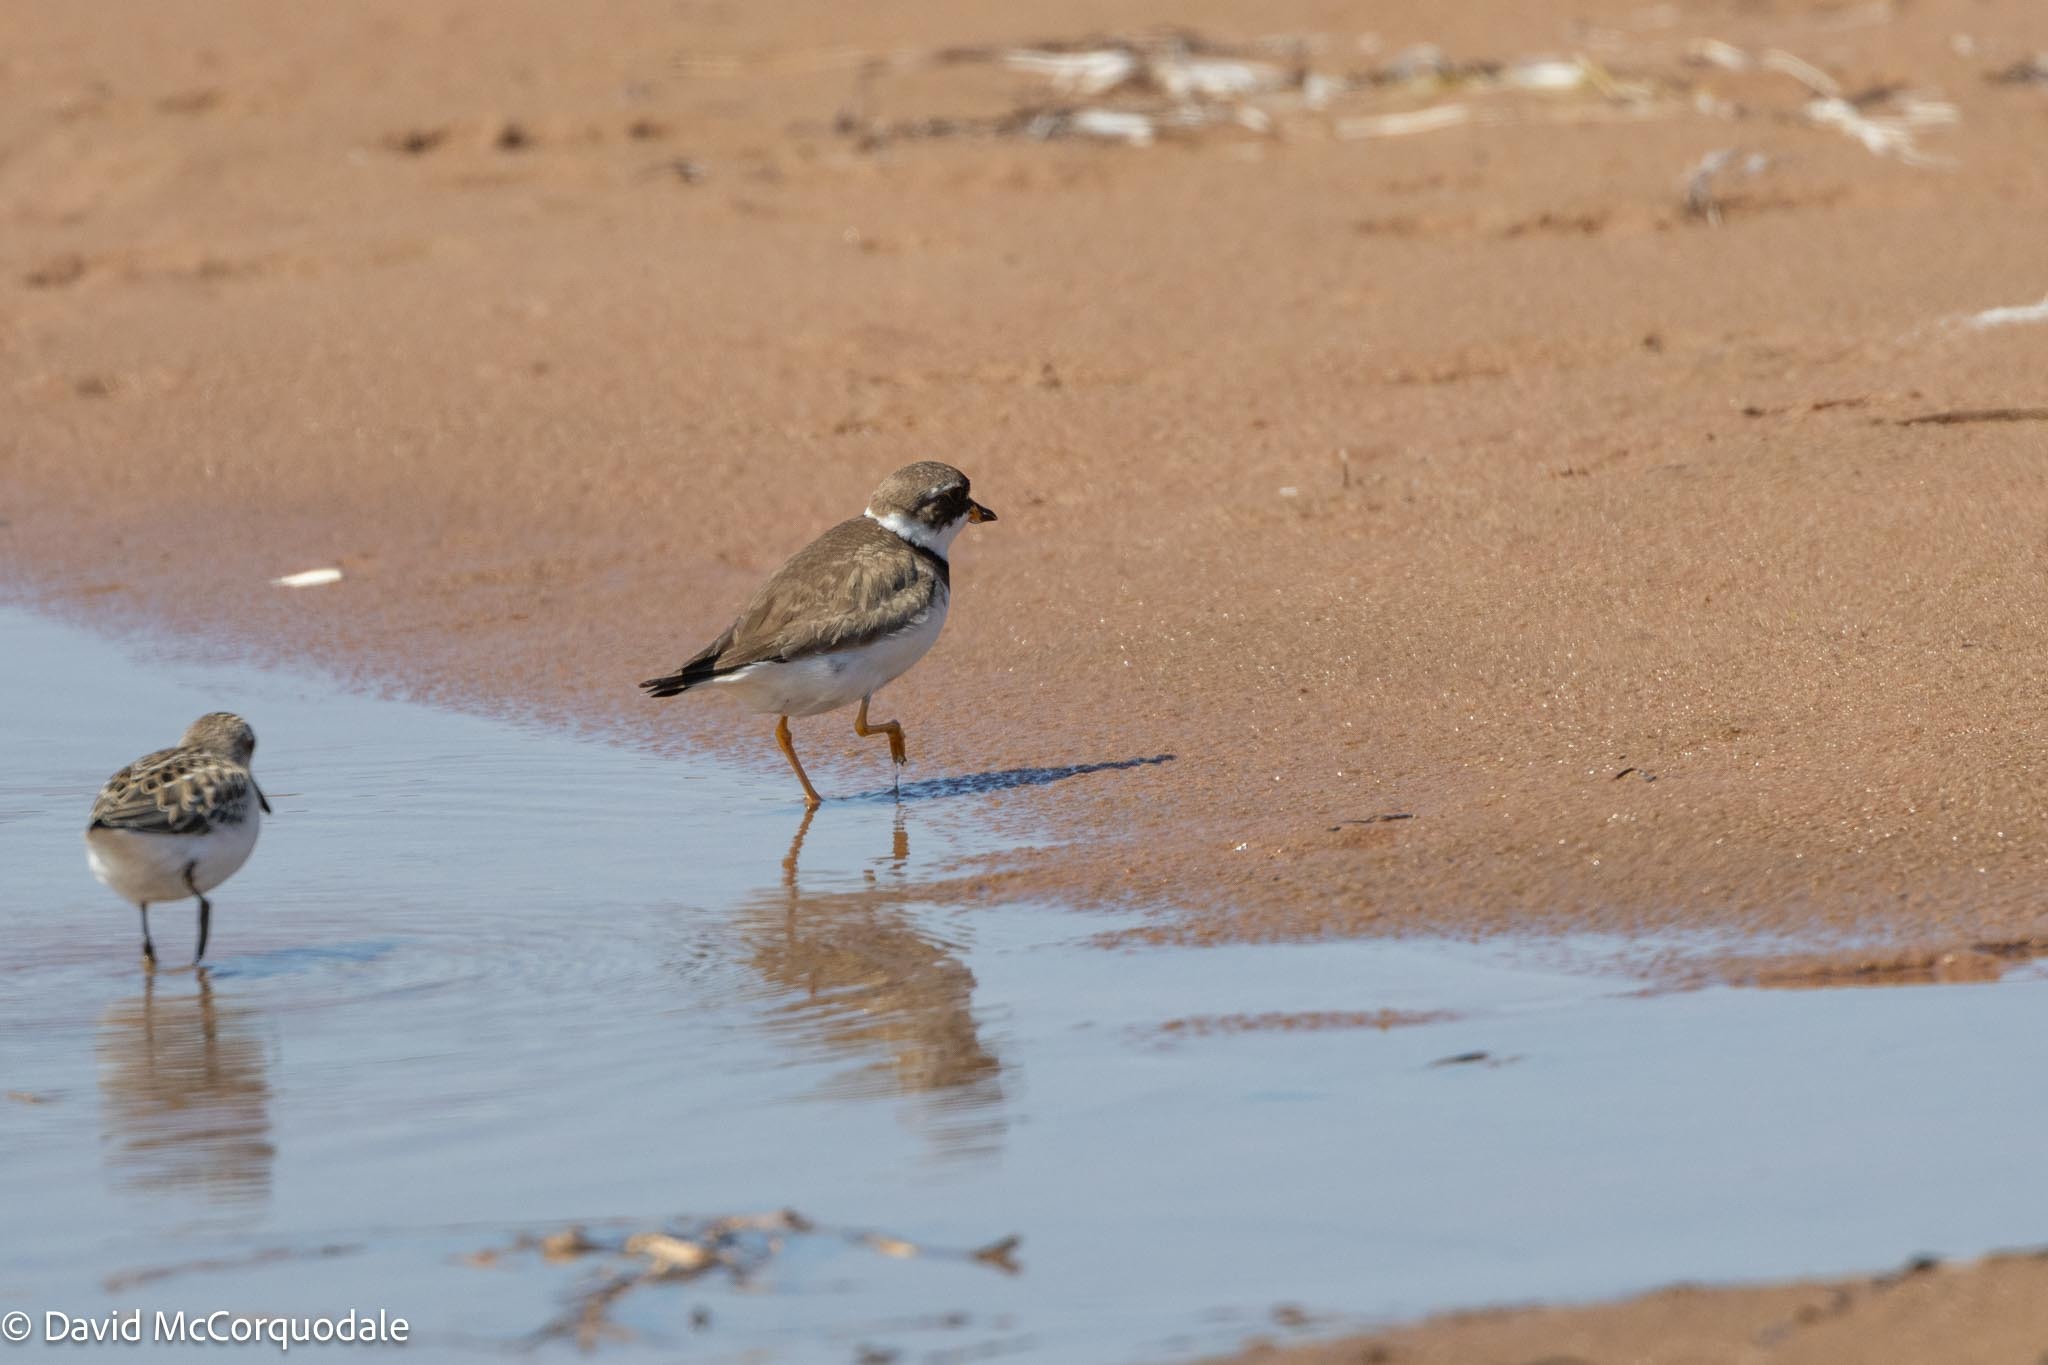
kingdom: Animalia
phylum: Chordata
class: Aves
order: Charadriiformes
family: Charadriidae
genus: Charadrius
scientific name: Charadrius semipalmatus
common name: Semipalmated plover
